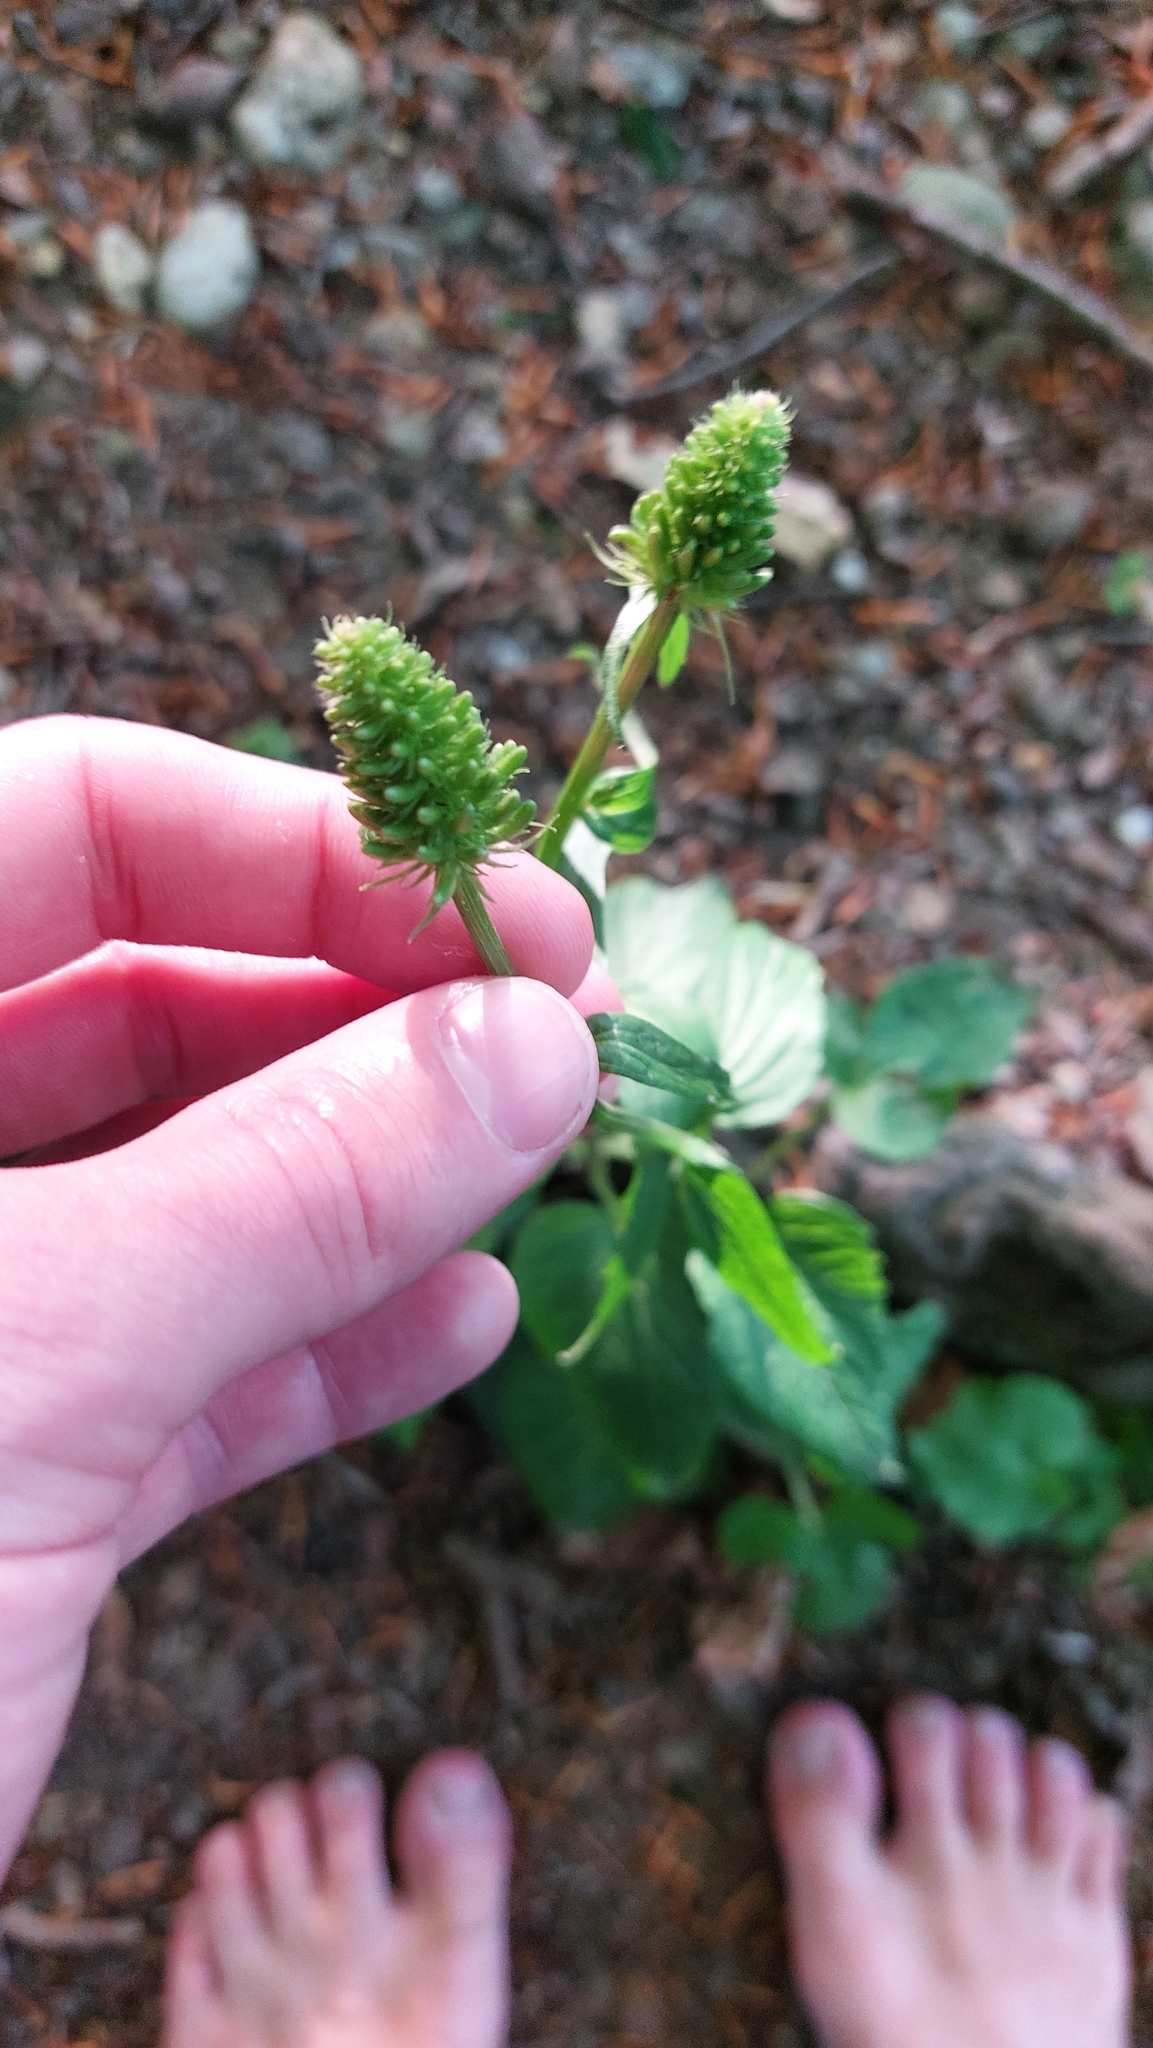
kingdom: Plantae
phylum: Tracheophyta
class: Magnoliopsida
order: Asterales
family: Campanulaceae
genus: Phyteuma
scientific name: Phyteuma spicatum
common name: Spiked rampion
